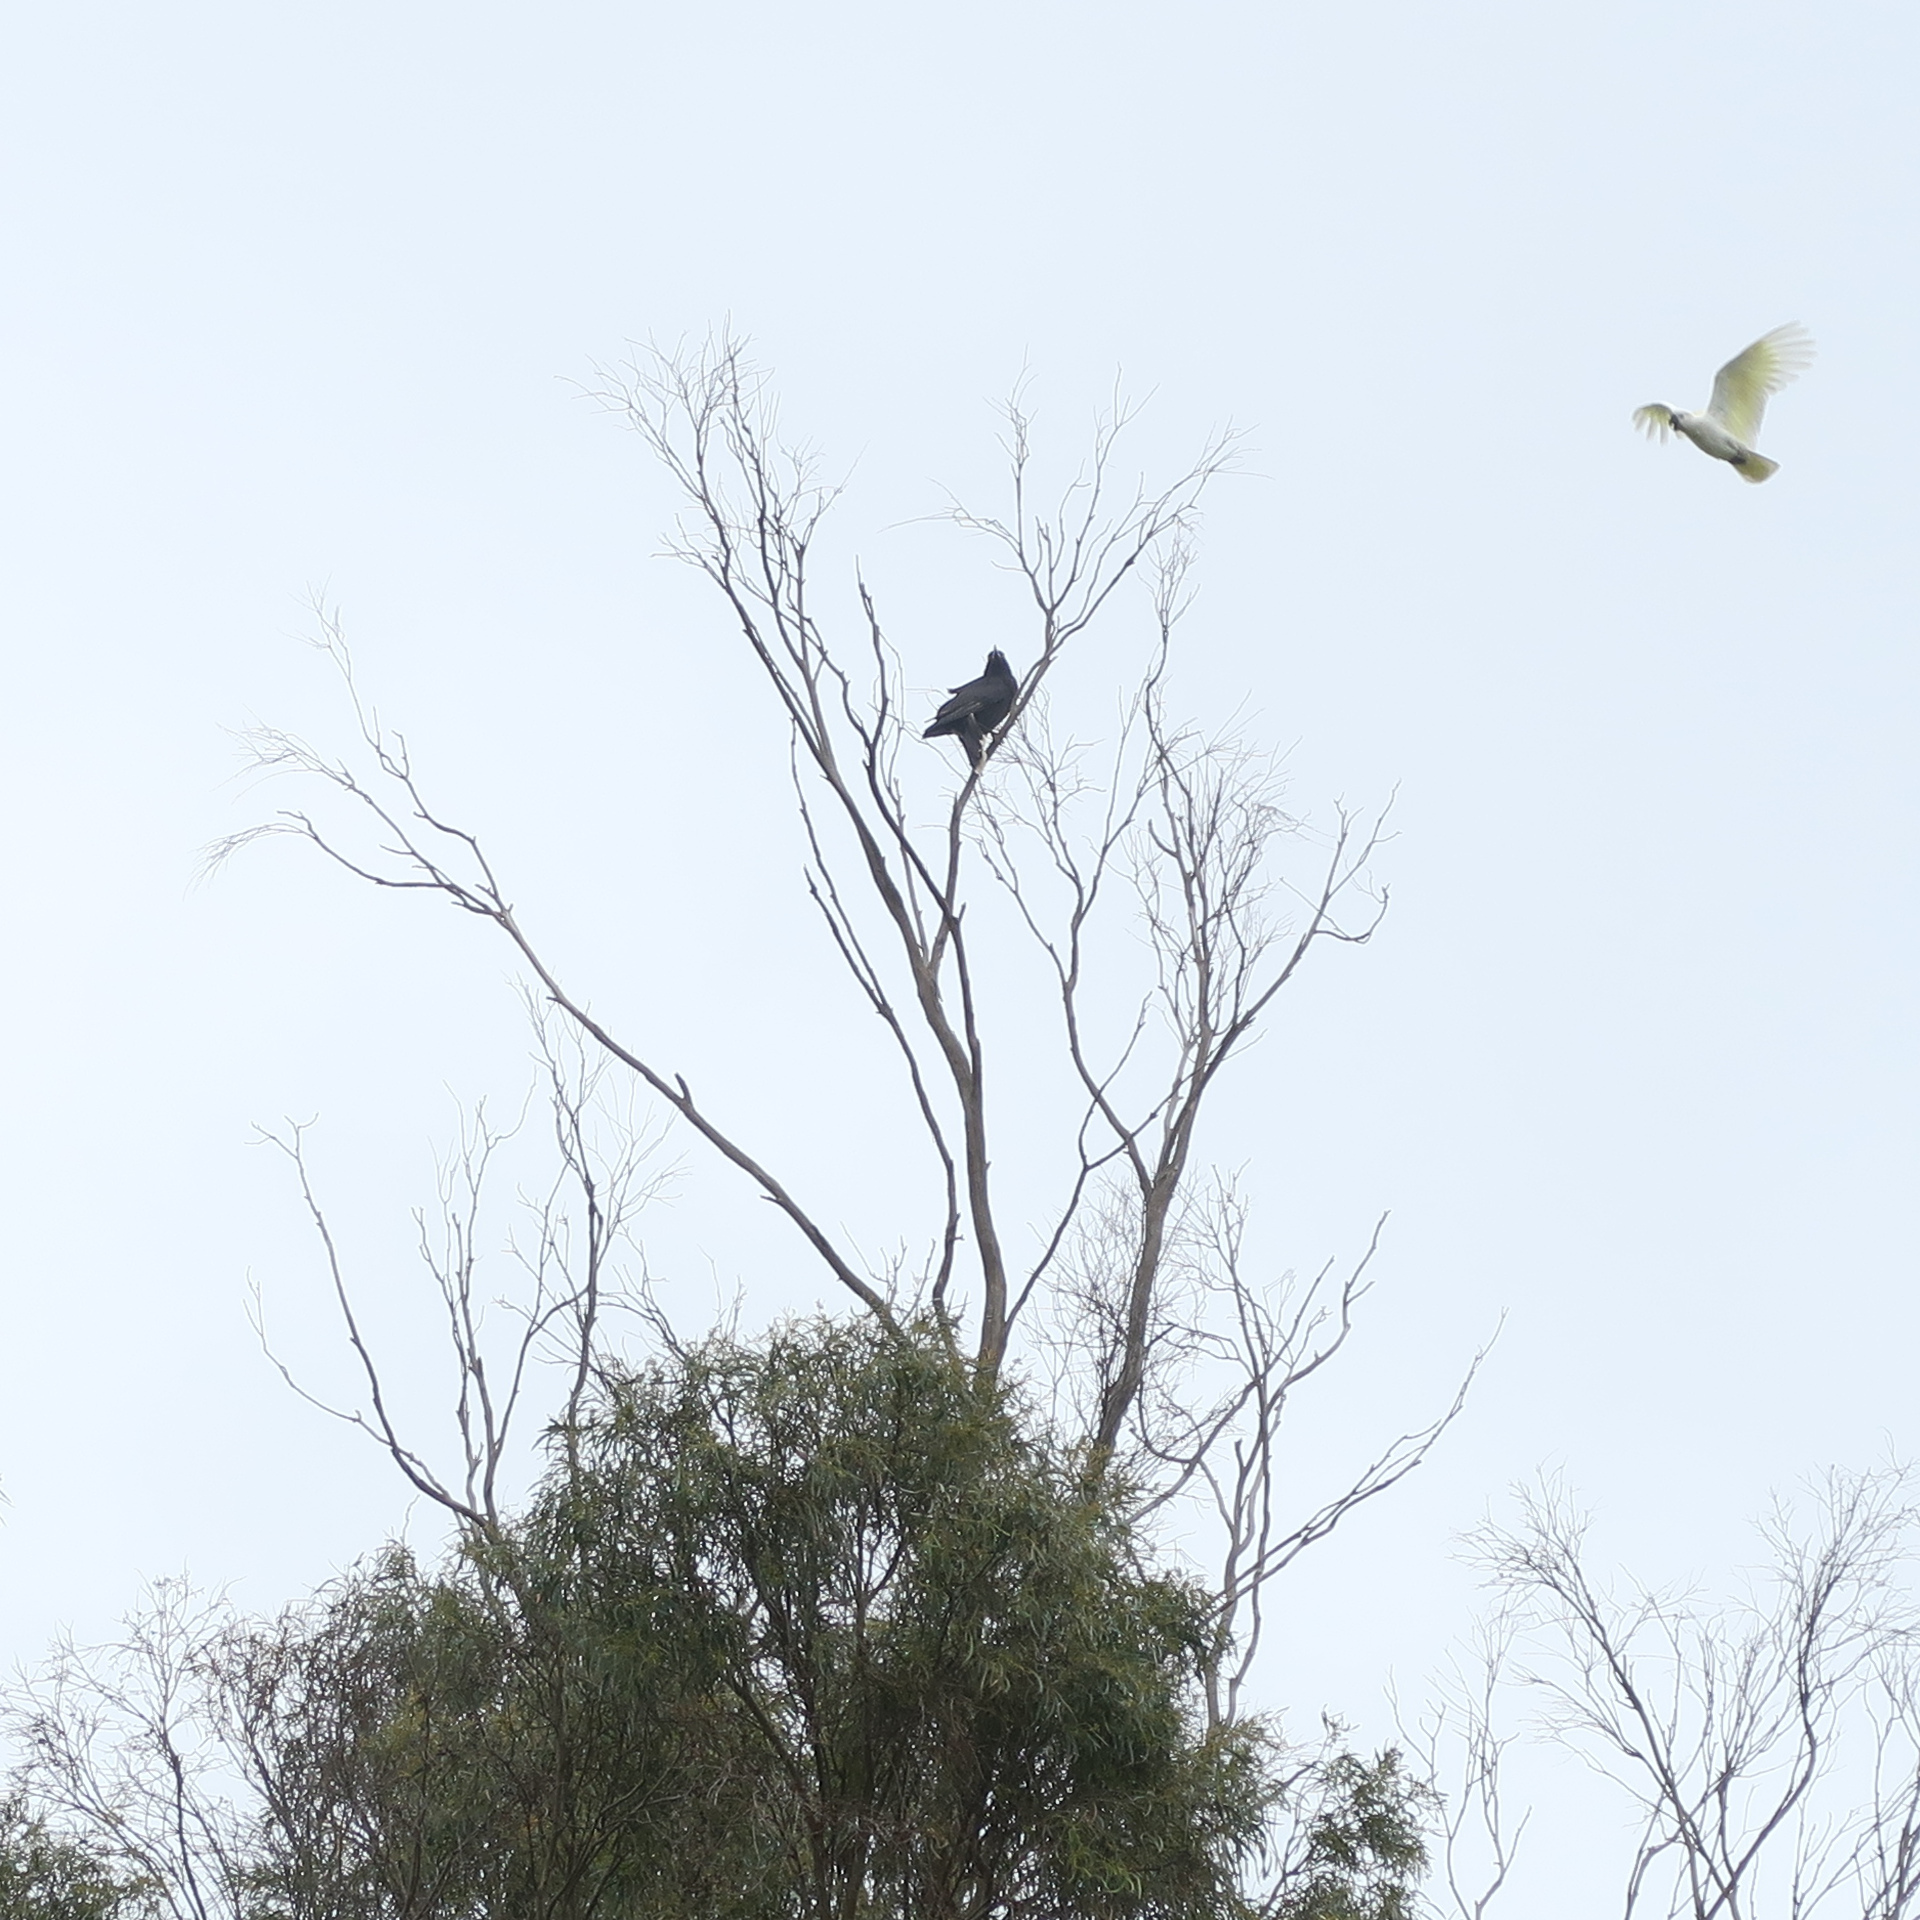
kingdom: Animalia
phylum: Chordata
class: Aves
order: Passeriformes
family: Cracticidae
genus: Strepera
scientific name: Strepera versicolor
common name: Grey currawong
